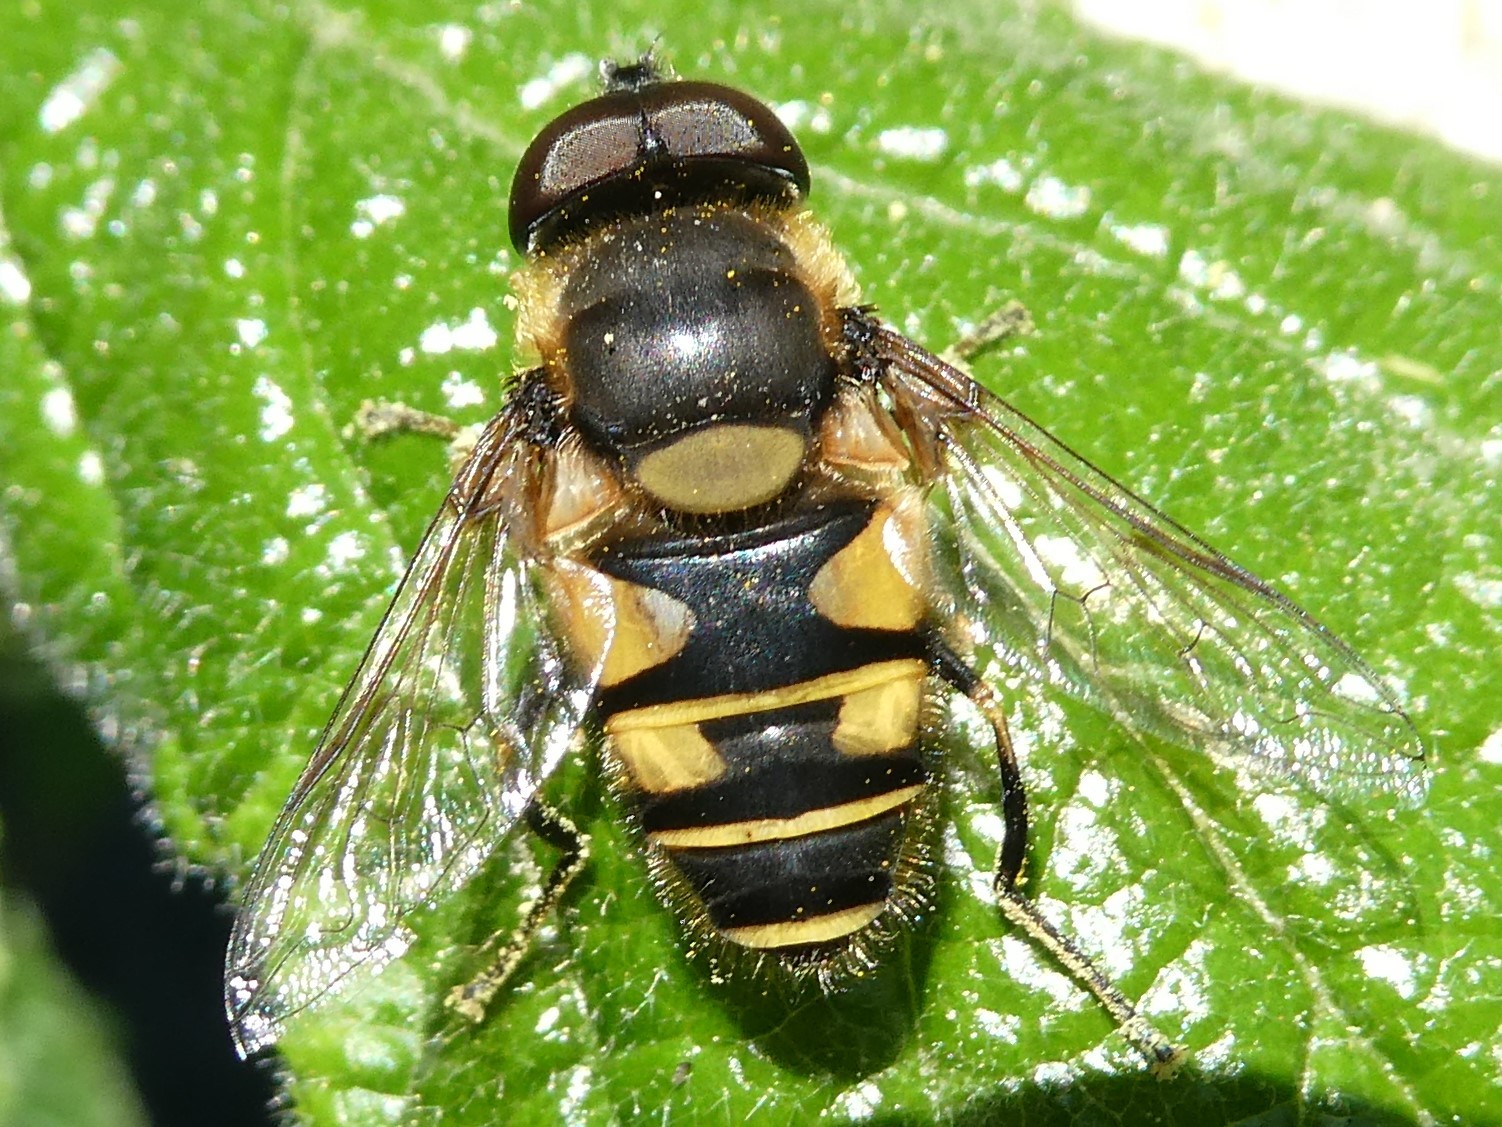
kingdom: Animalia
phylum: Arthropoda
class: Insecta
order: Diptera
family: Syrphidae
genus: Eristalis
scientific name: Eristalis transversa
